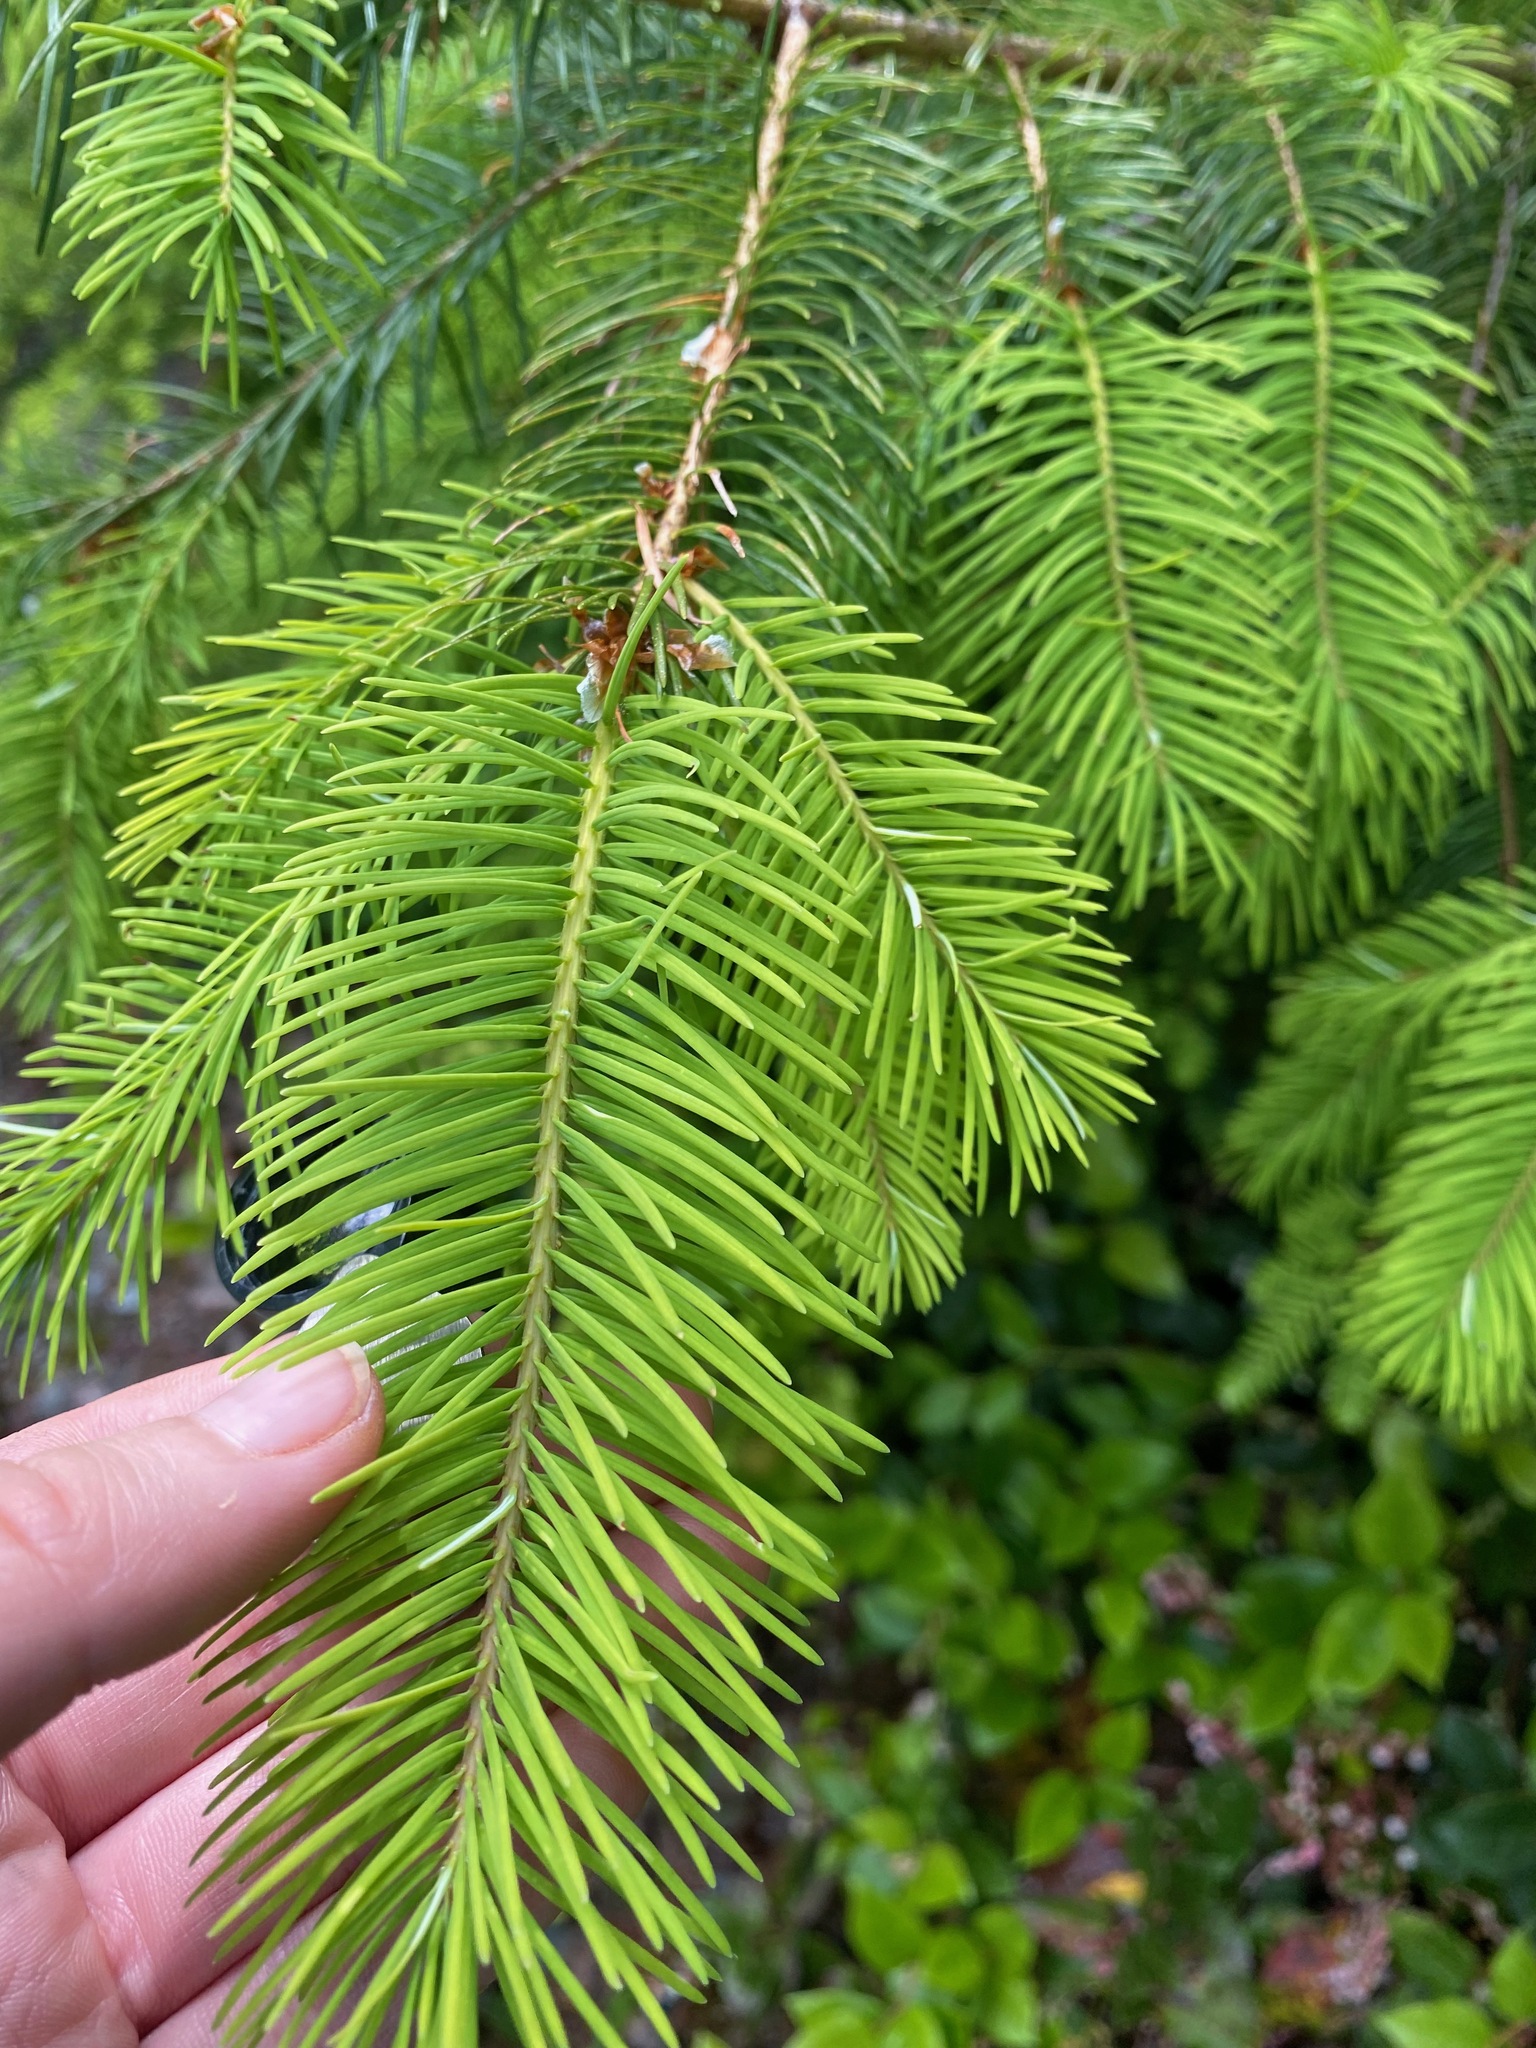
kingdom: Plantae
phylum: Tracheophyta
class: Pinopsida
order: Pinales
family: Pinaceae
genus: Pseudotsuga
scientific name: Pseudotsuga menziesii
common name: Douglas fir
